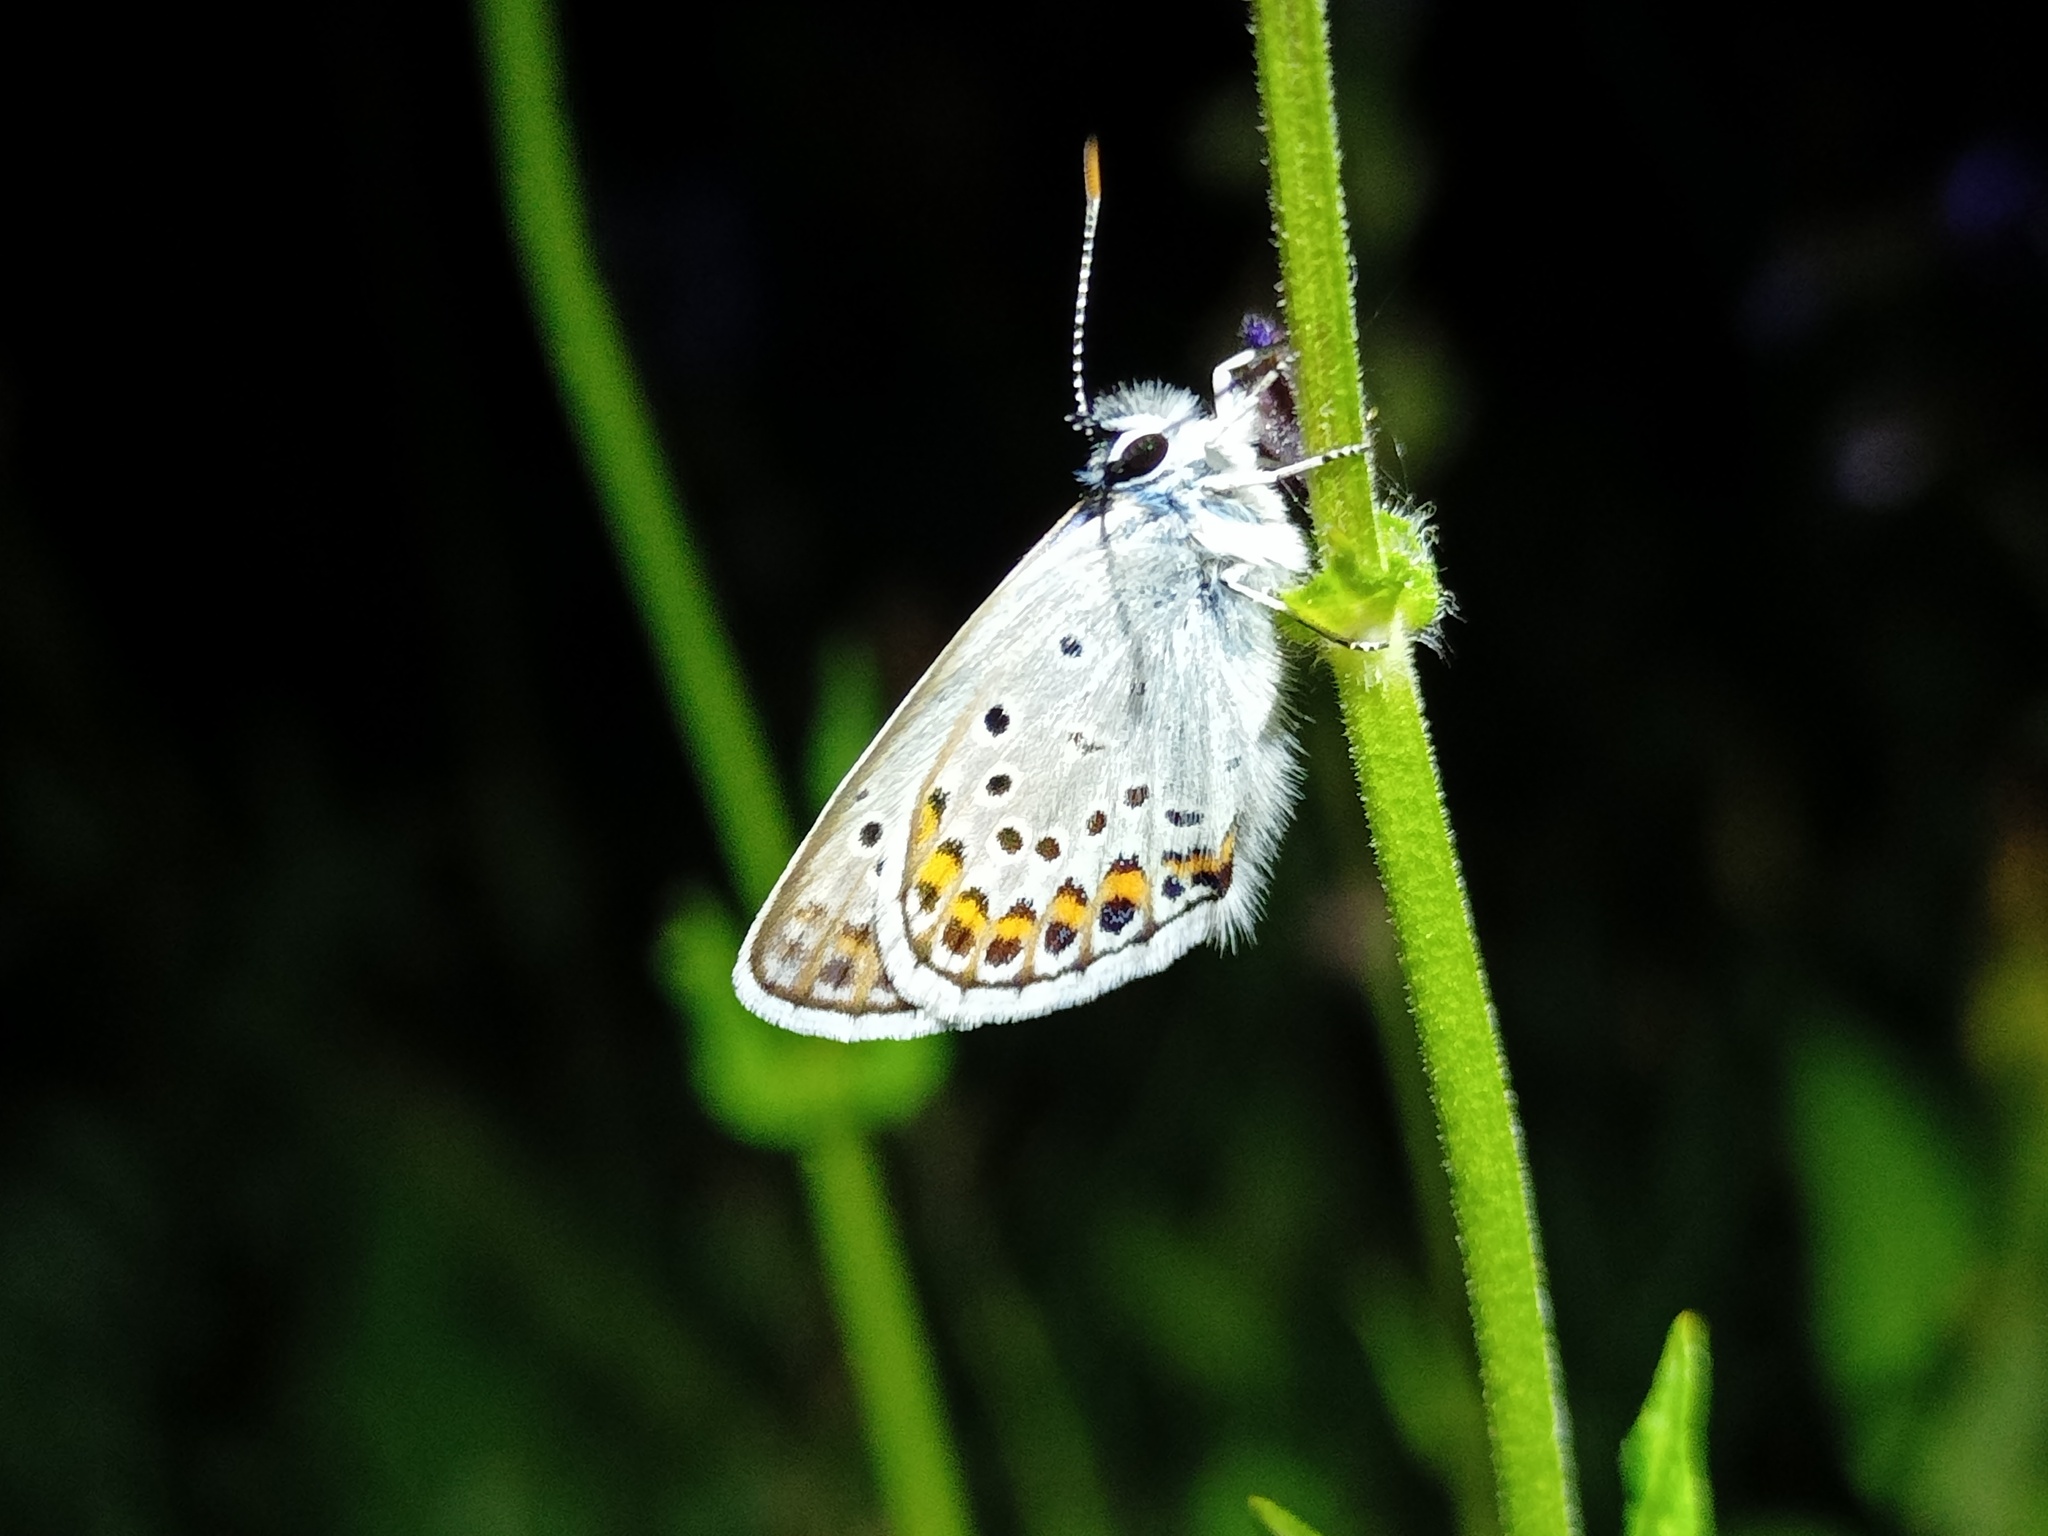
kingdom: Animalia
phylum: Arthropoda
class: Insecta
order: Lepidoptera
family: Lycaenidae
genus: Plebejus
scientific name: Plebejus argus
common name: Silver-studded blue
